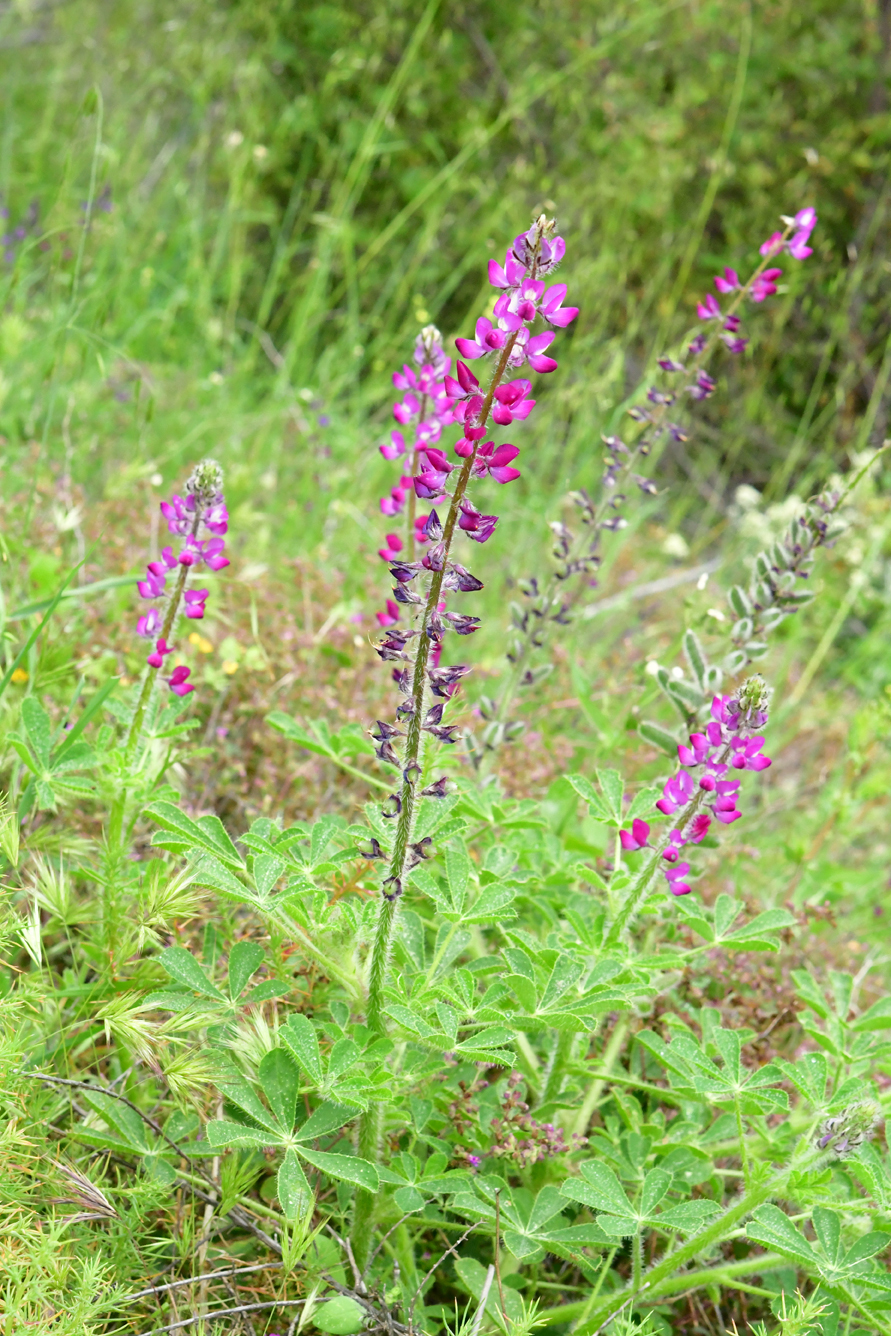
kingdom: Plantae
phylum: Tracheophyta
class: Magnoliopsida
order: Fabales
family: Fabaceae
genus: Lupinus
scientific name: Lupinus hirsutissimus
